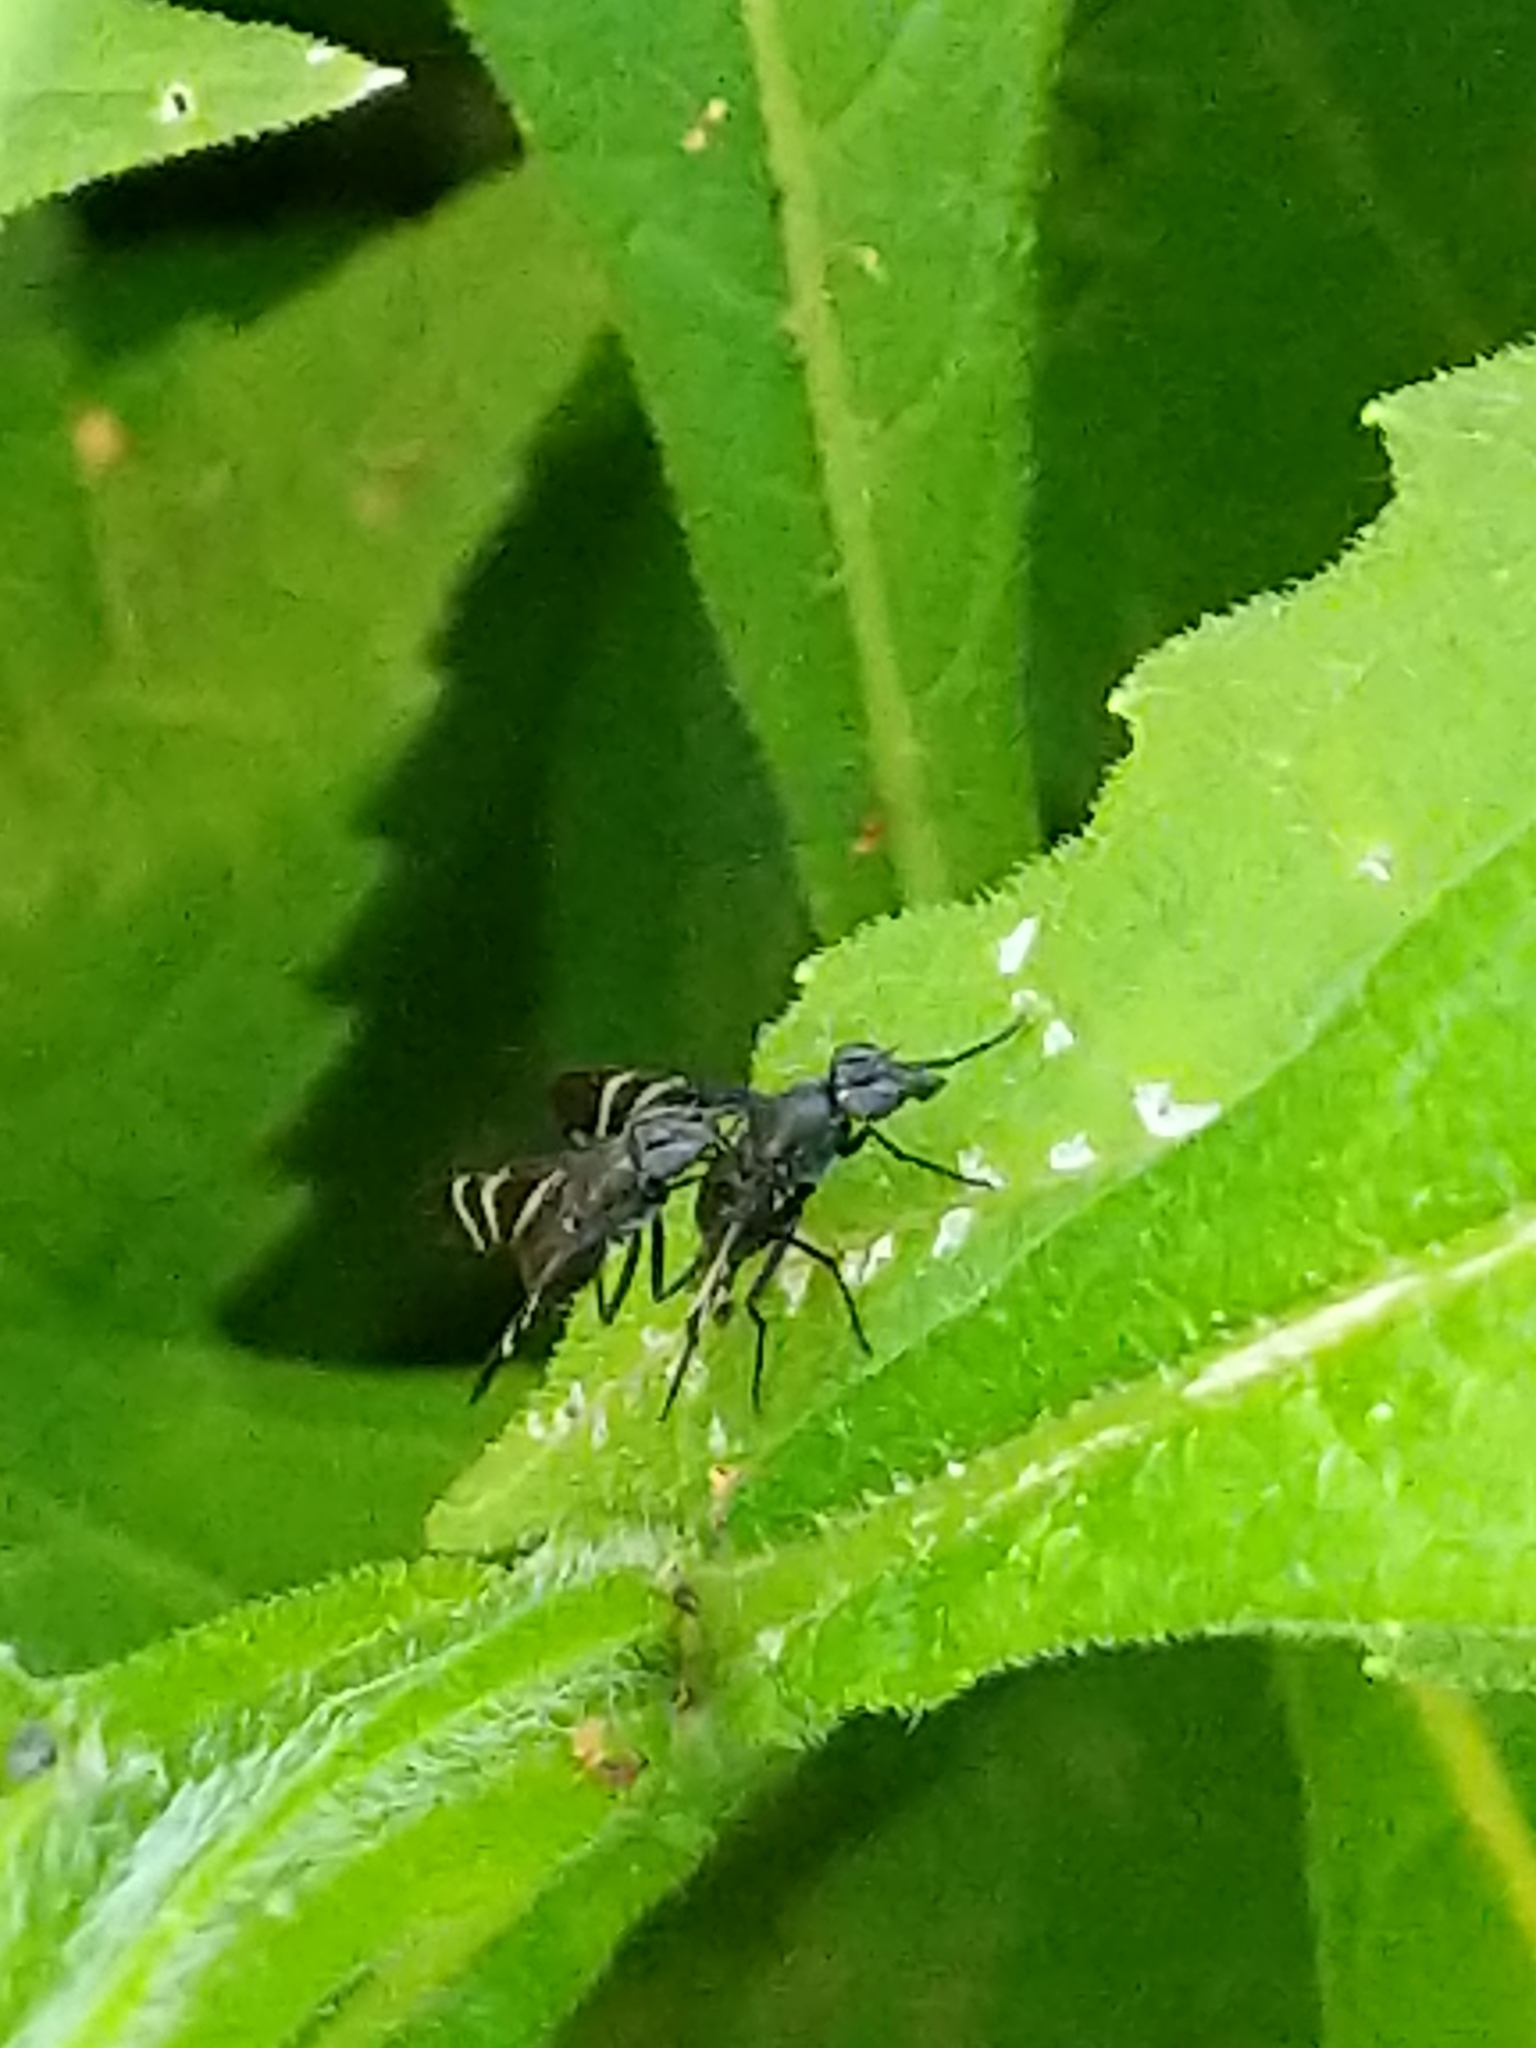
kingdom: Animalia
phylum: Arthropoda
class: Insecta
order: Diptera
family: Ulidiidae
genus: Tritoxa
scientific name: Tritoxa flexa
